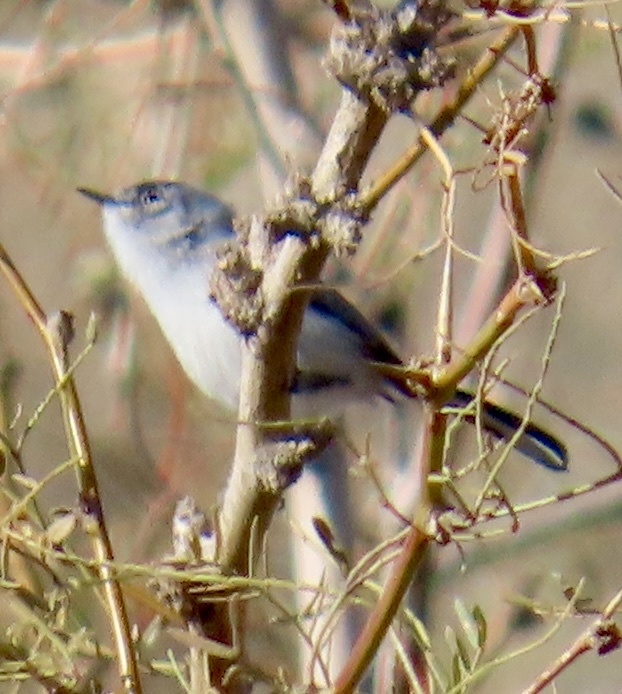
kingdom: Animalia
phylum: Chordata
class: Aves
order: Passeriformes
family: Polioptilidae
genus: Polioptila
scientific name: Polioptila melanura
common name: Black-tailed gnatcatcher
